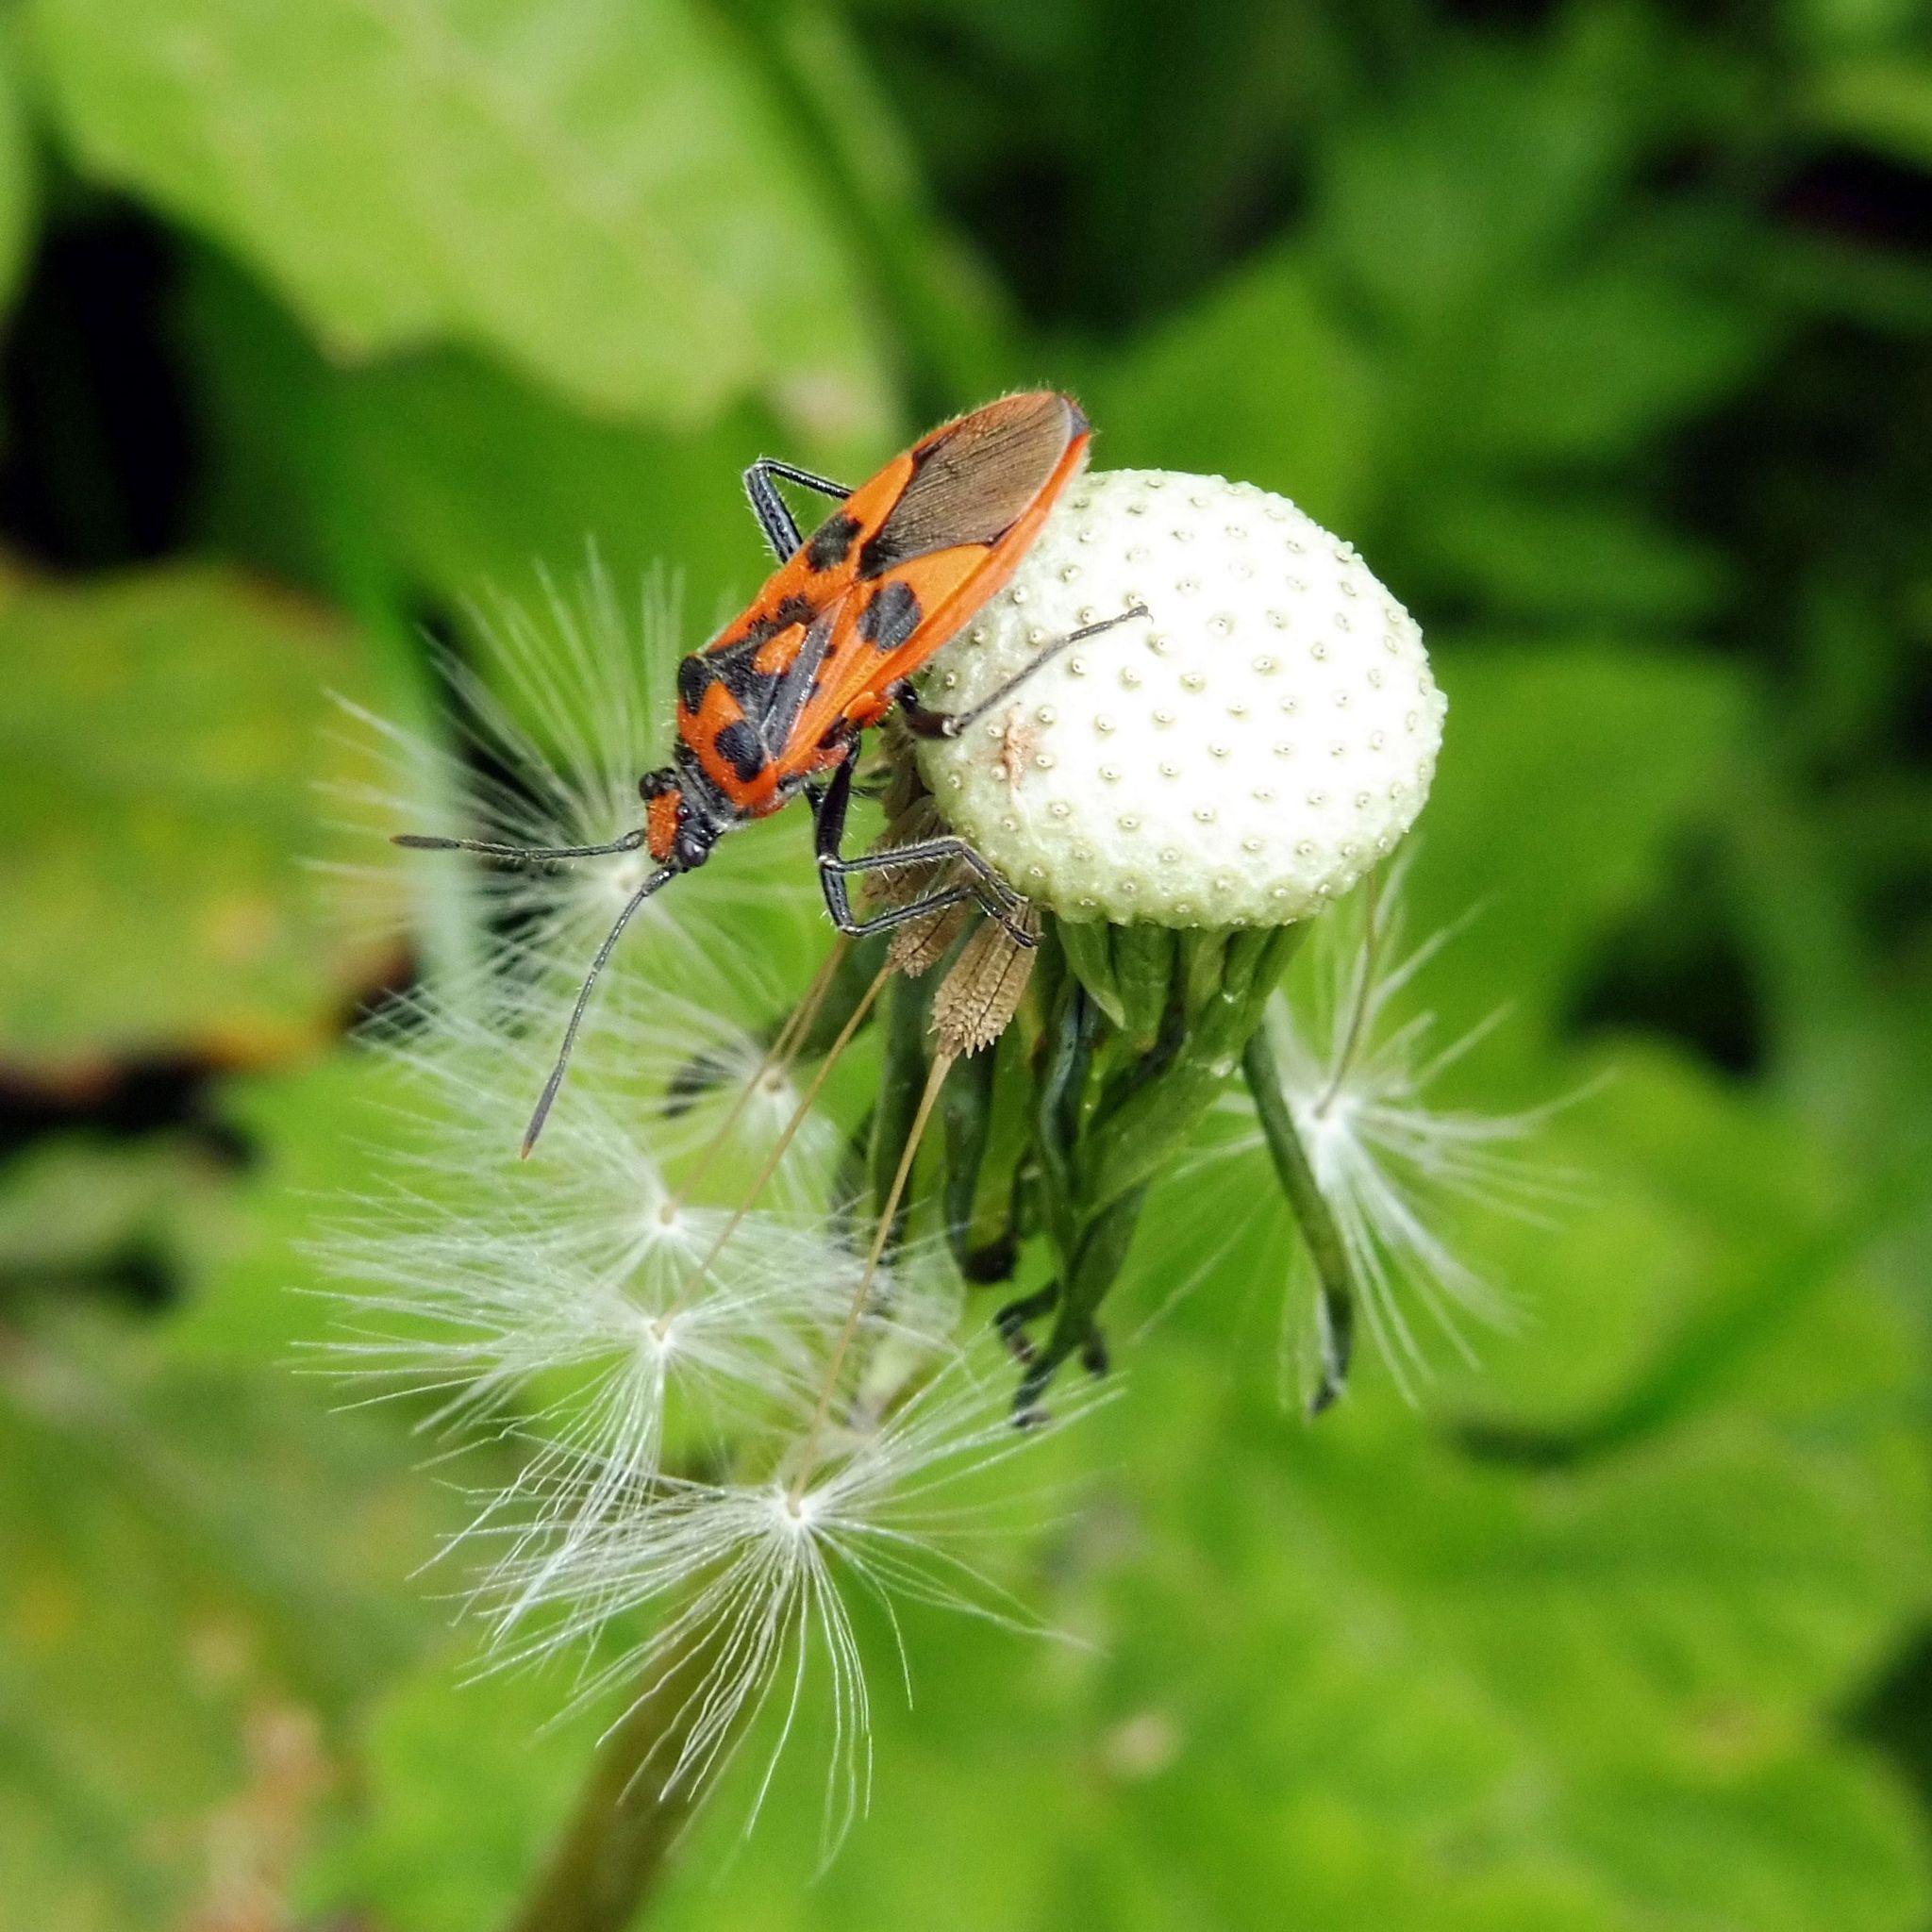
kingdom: Animalia
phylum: Arthropoda
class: Insecta
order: Hemiptera
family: Rhopalidae
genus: Corizus
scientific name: Corizus hyoscyami
